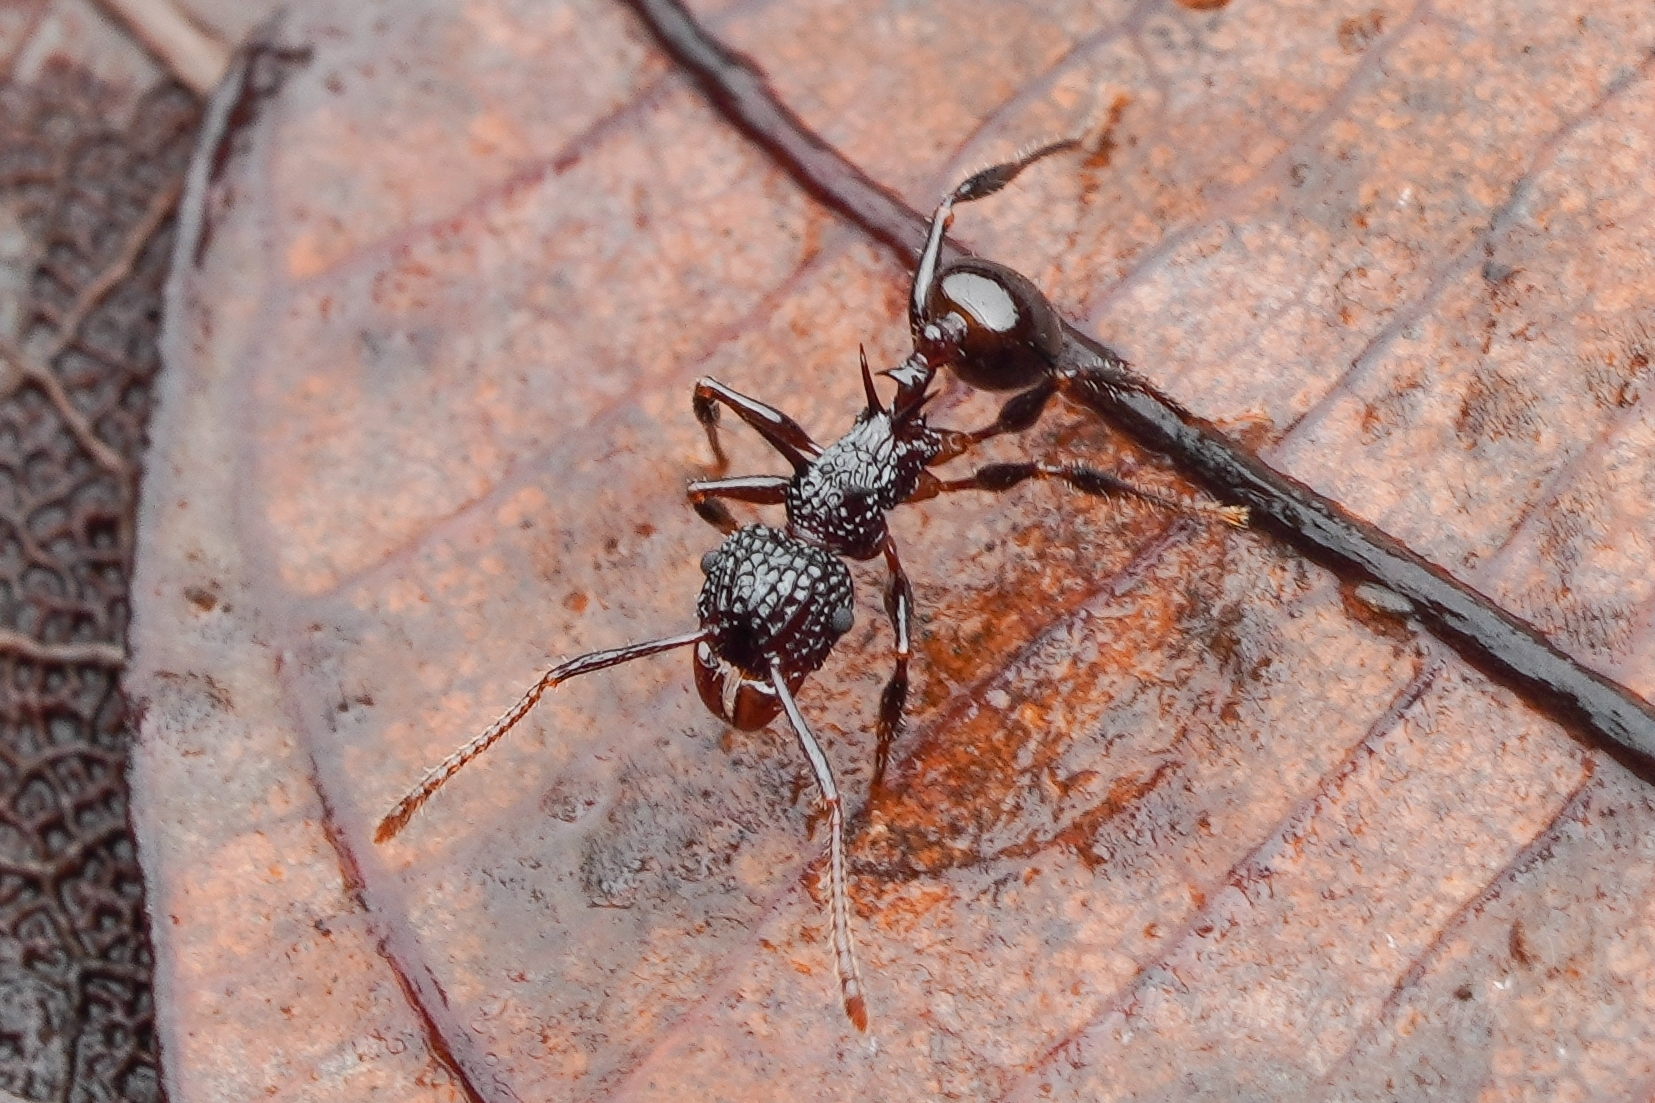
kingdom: Animalia
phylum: Arthropoda
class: Insecta
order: Hymenoptera
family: Formicidae
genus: Acanthomyrmex
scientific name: Acanthomyrmex ferox
